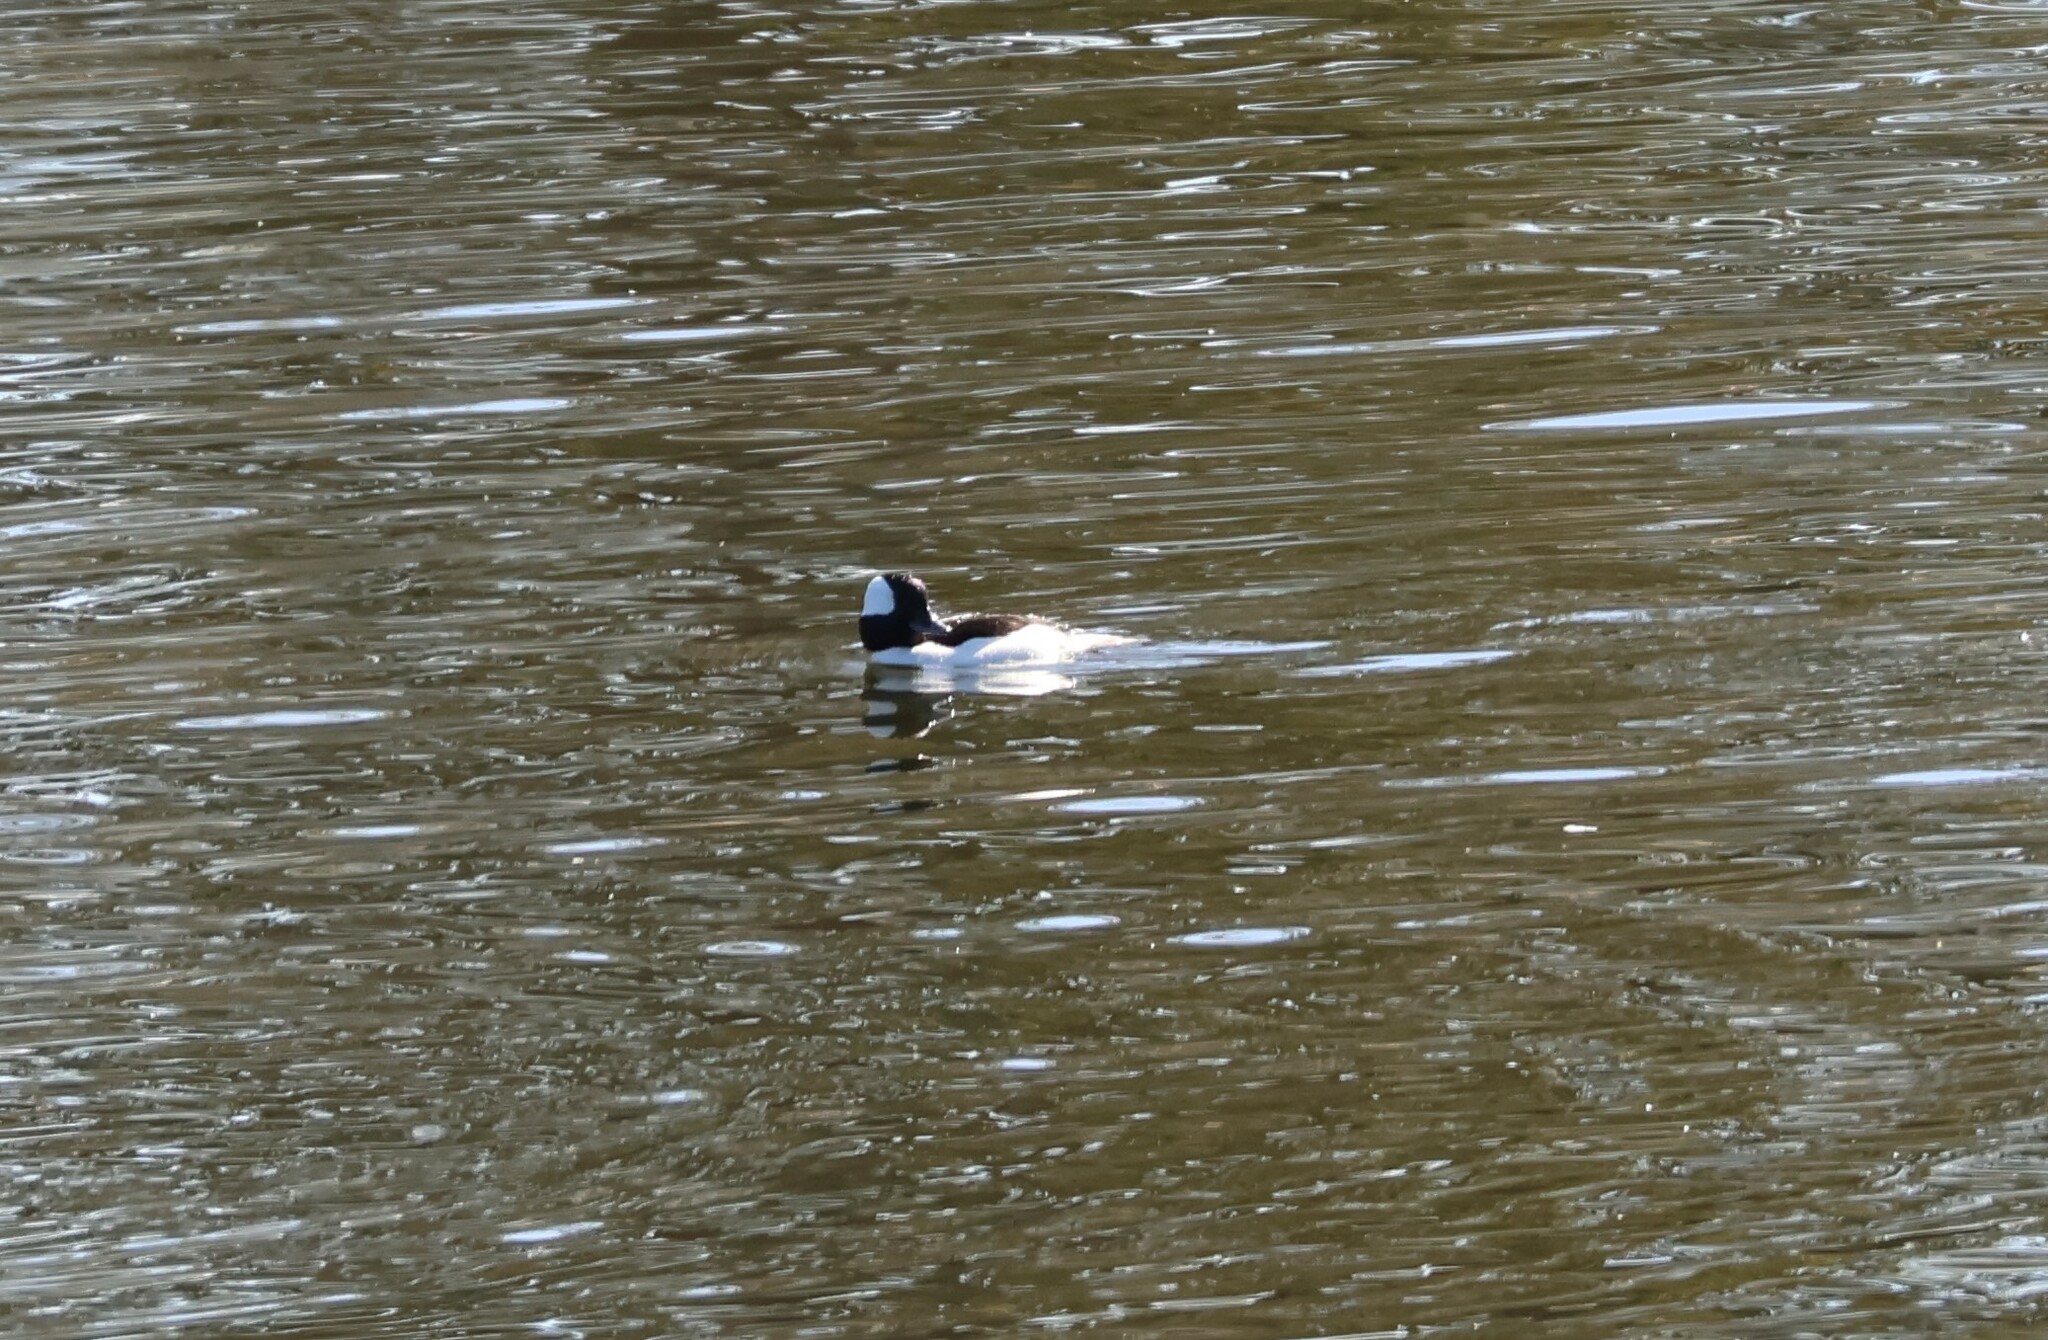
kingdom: Animalia
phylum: Chordata
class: Aves
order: Anseriformes
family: Anatidae
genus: Bucephala
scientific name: Bucephala albeola
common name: Bufflehead
